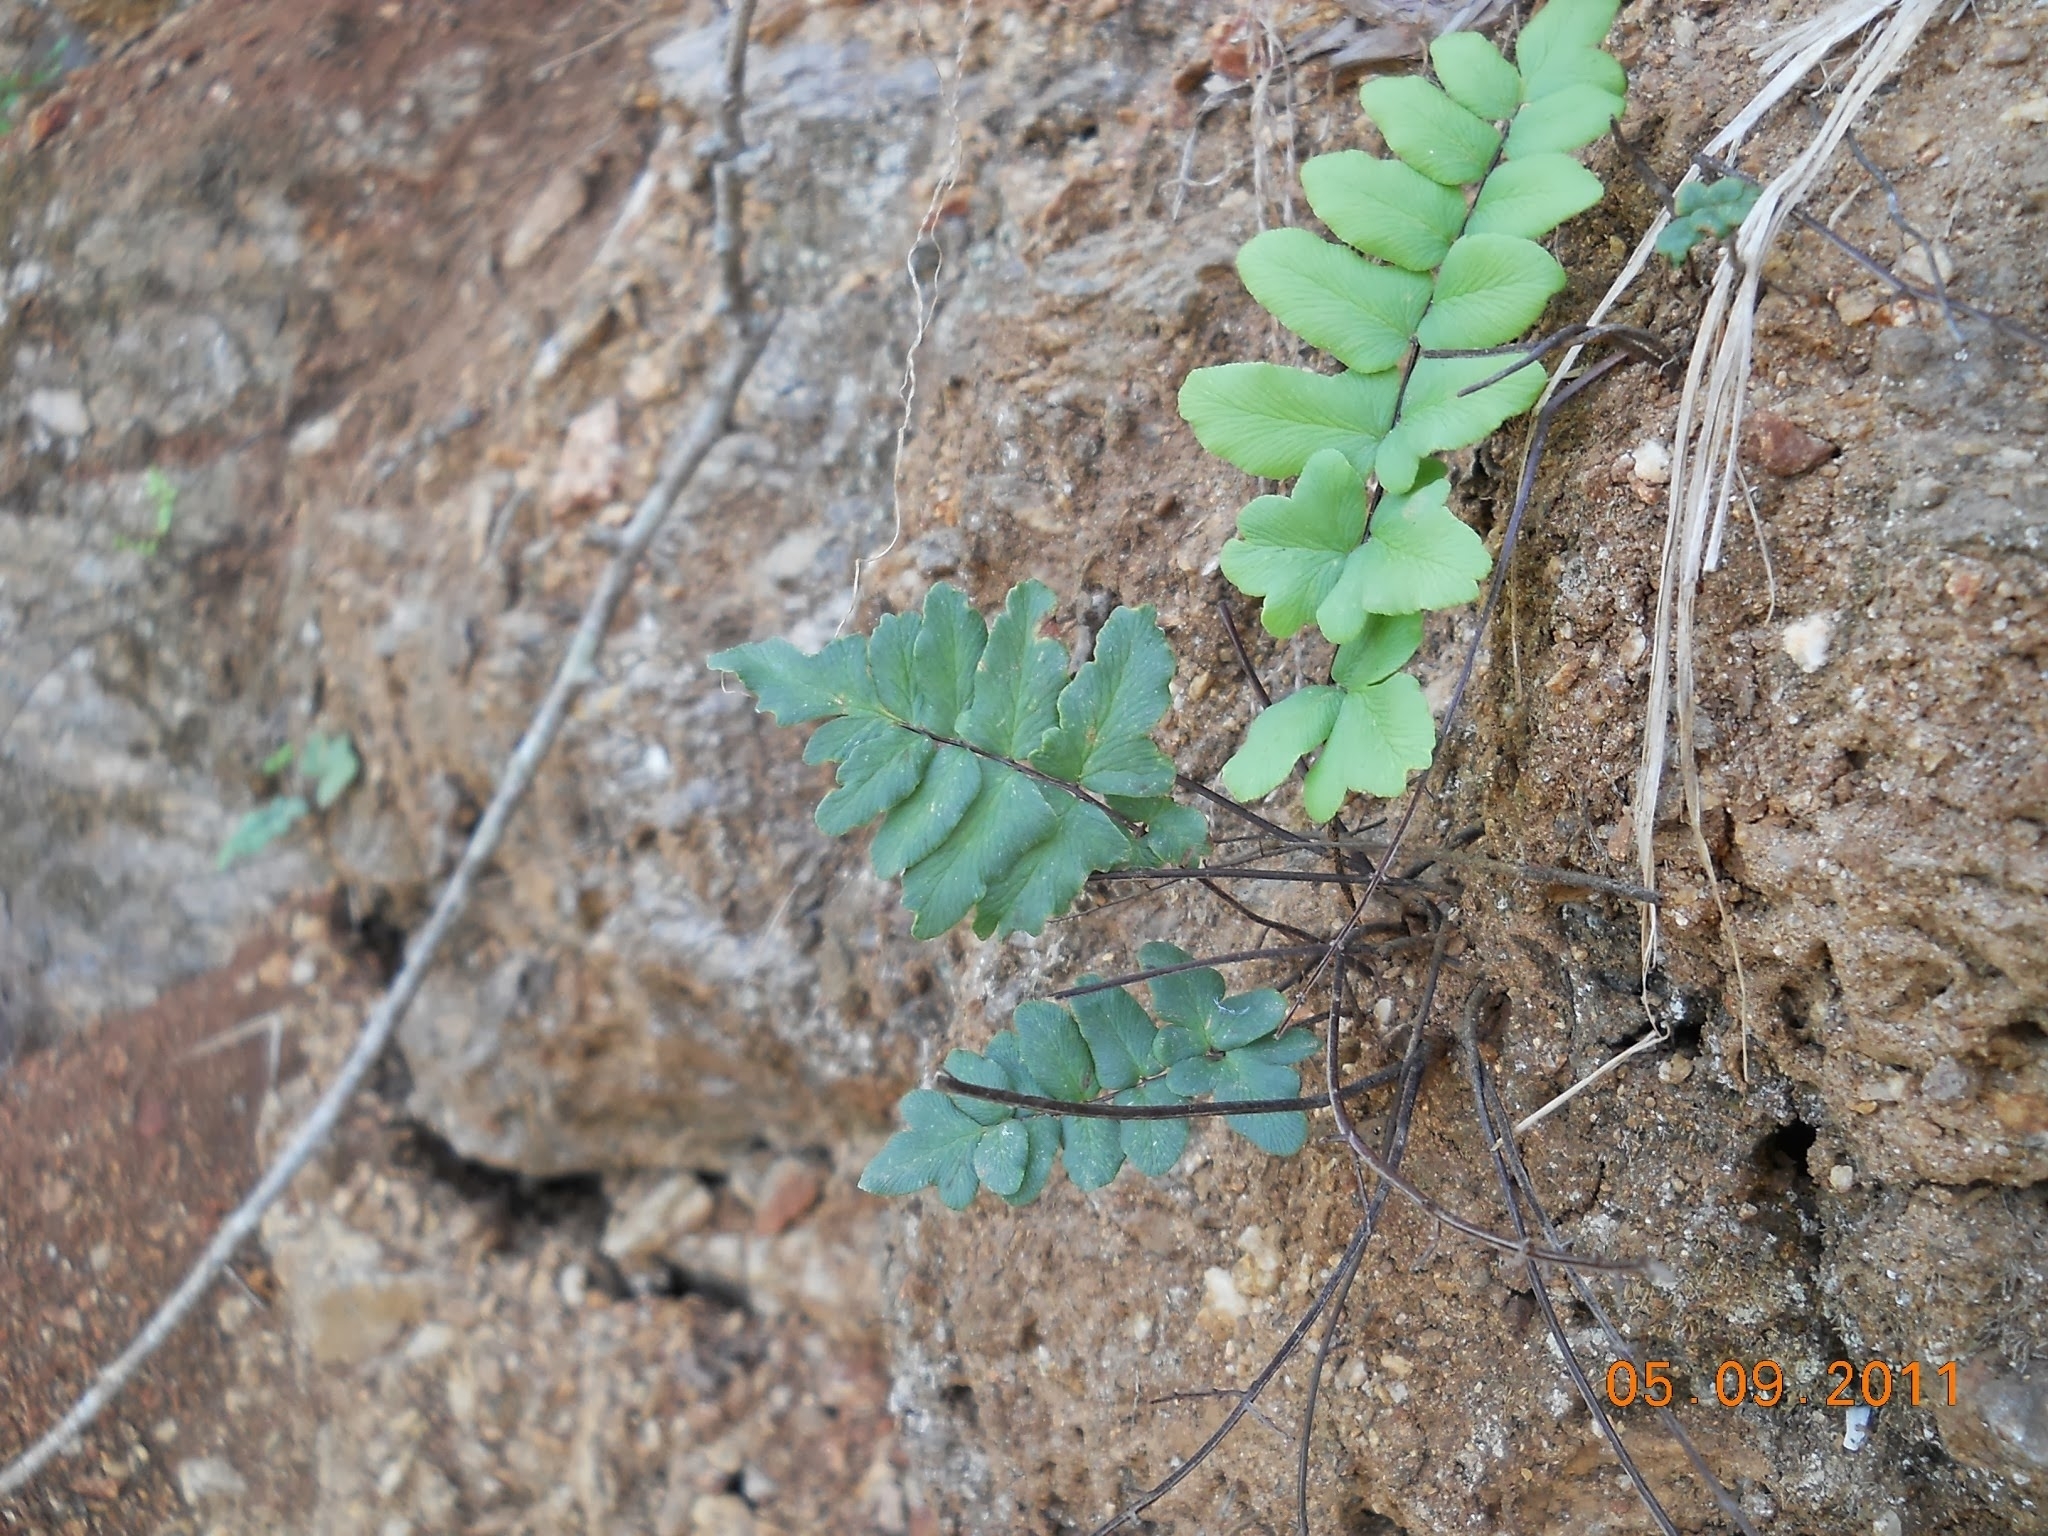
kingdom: Plantae
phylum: Tracheophyta
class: Polypodiopsida
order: Polypodiales
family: Pteridaceae
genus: Cheilanthes
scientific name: Cheilanthes viridis
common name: Green cliffbrake
